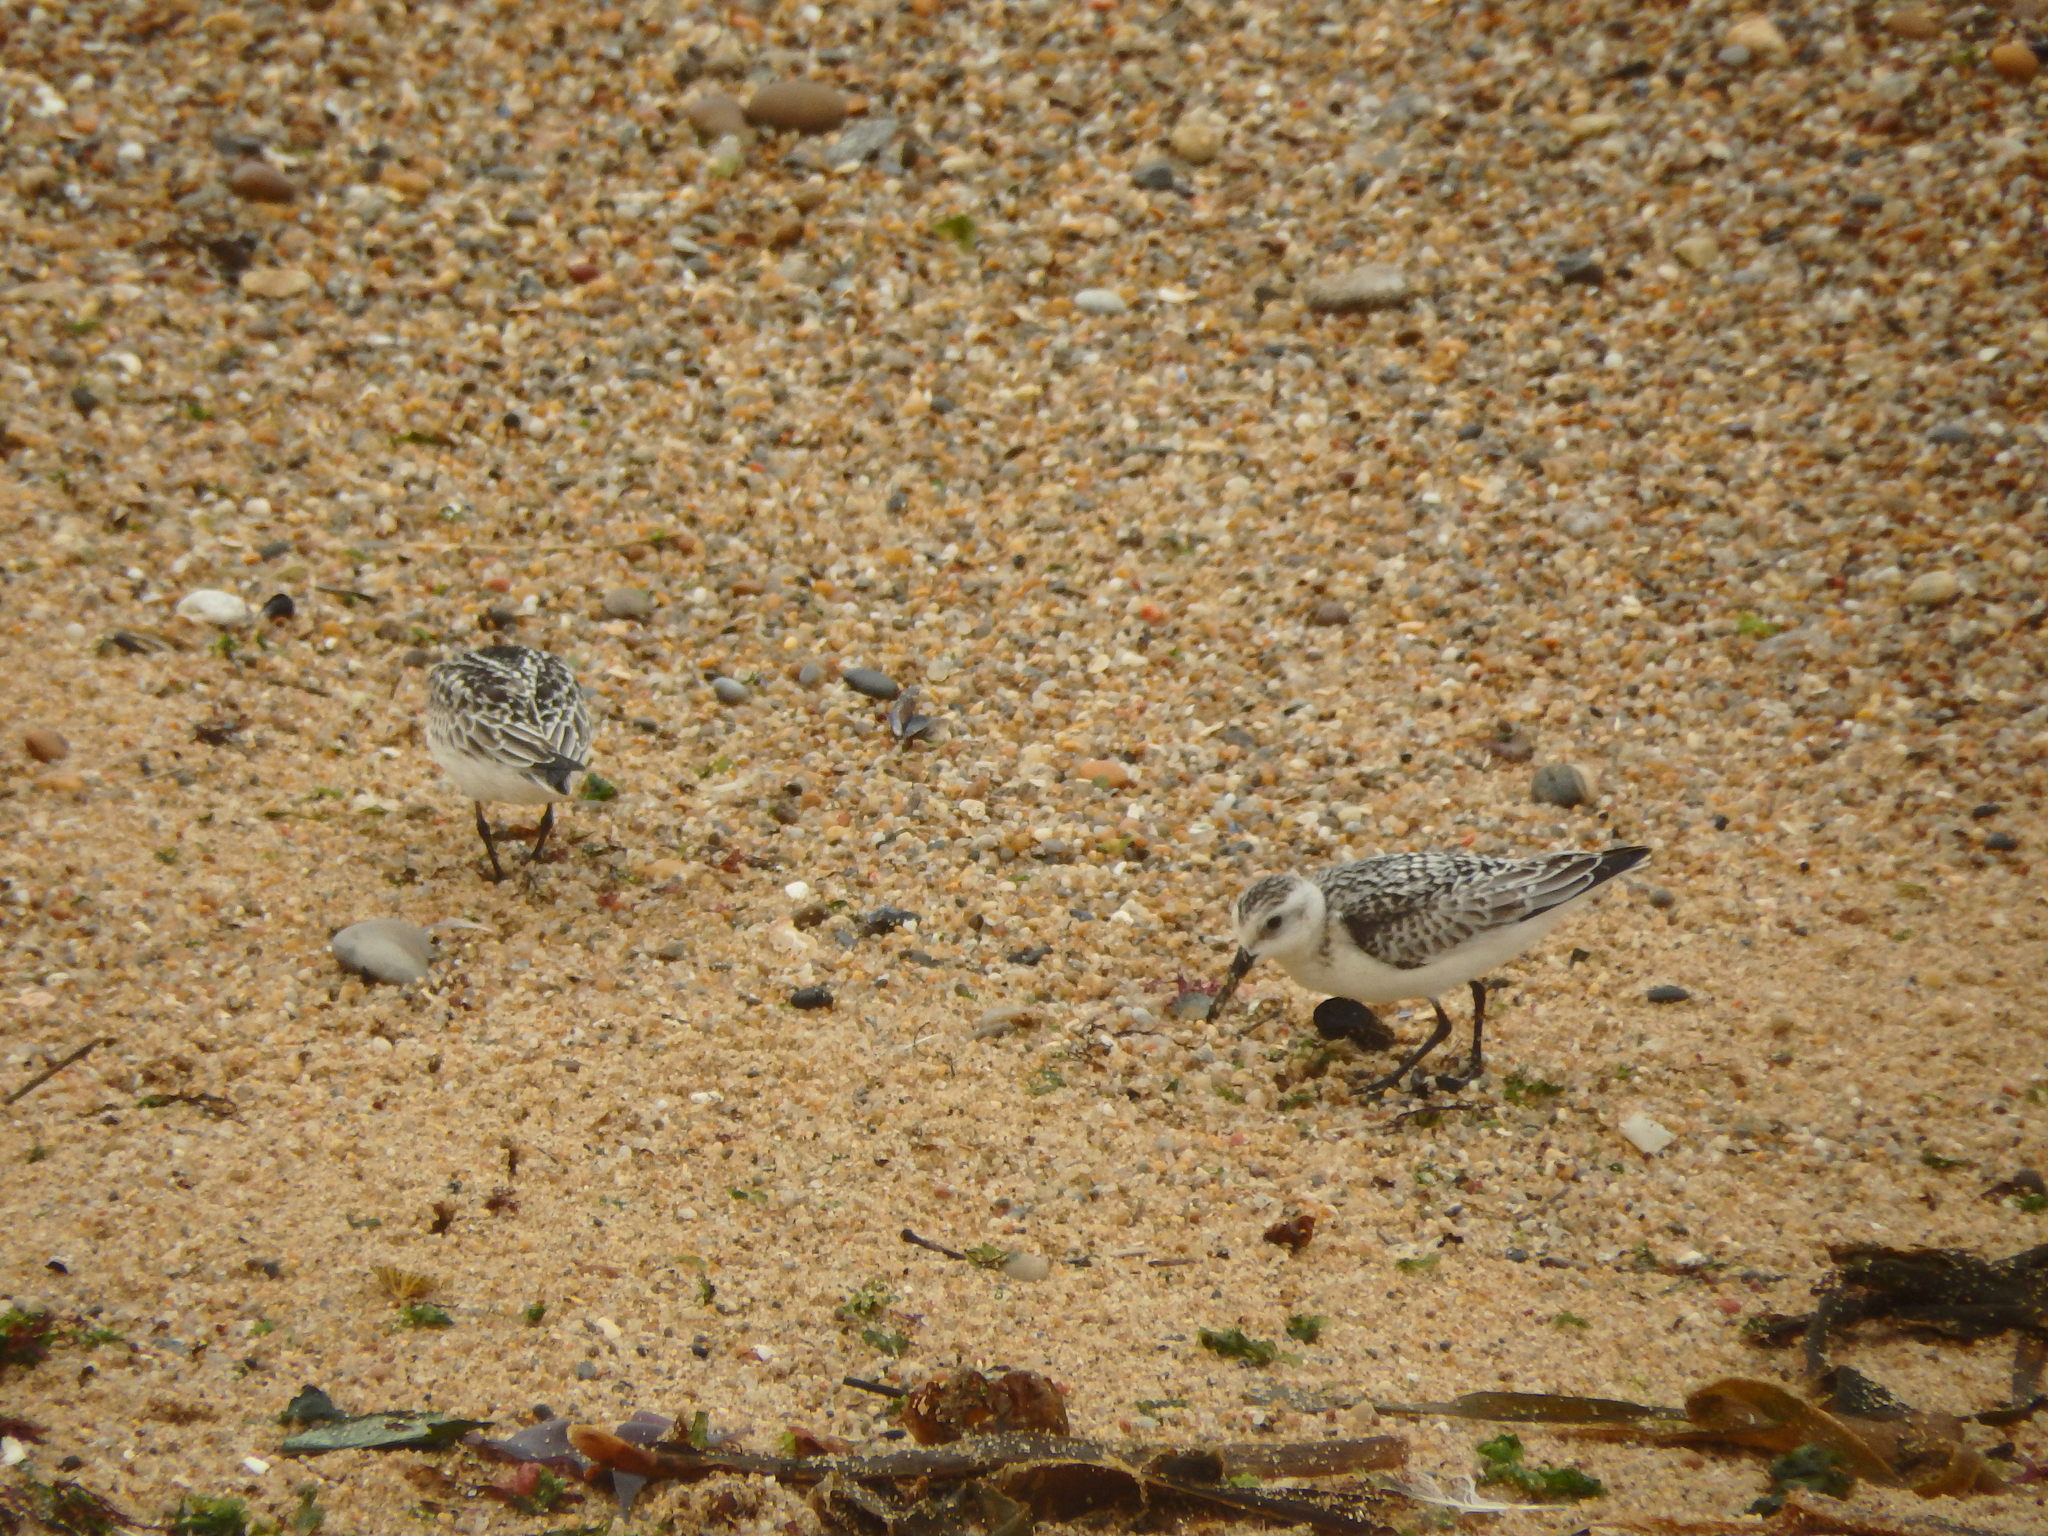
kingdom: Animalia
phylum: Chordata
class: Aves
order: Charadriiformes
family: Scolopacidae
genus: Calidris
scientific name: Calidris alba
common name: Sanderling
